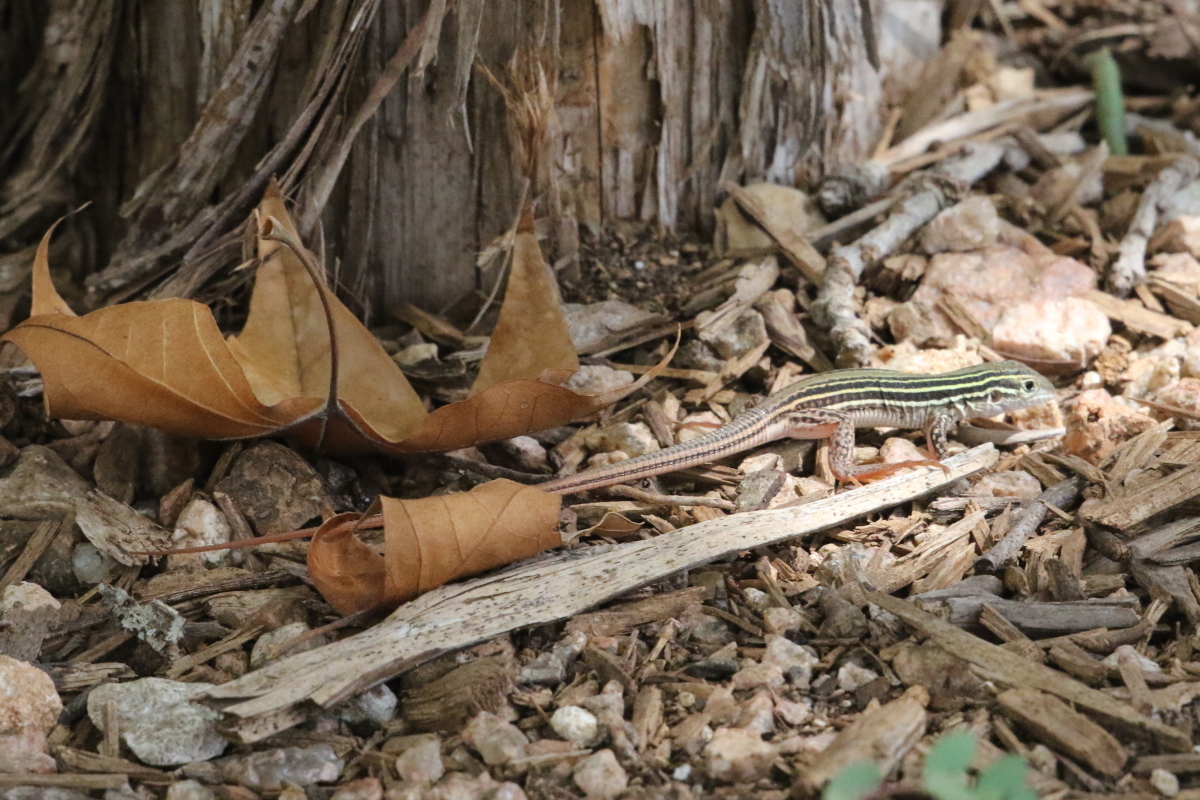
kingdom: Animalia
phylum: Chordata
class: Squamata
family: Teiidae
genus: Aspidoscelis
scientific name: Aspidoscelis gularis
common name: Eastern spotted whiptail
